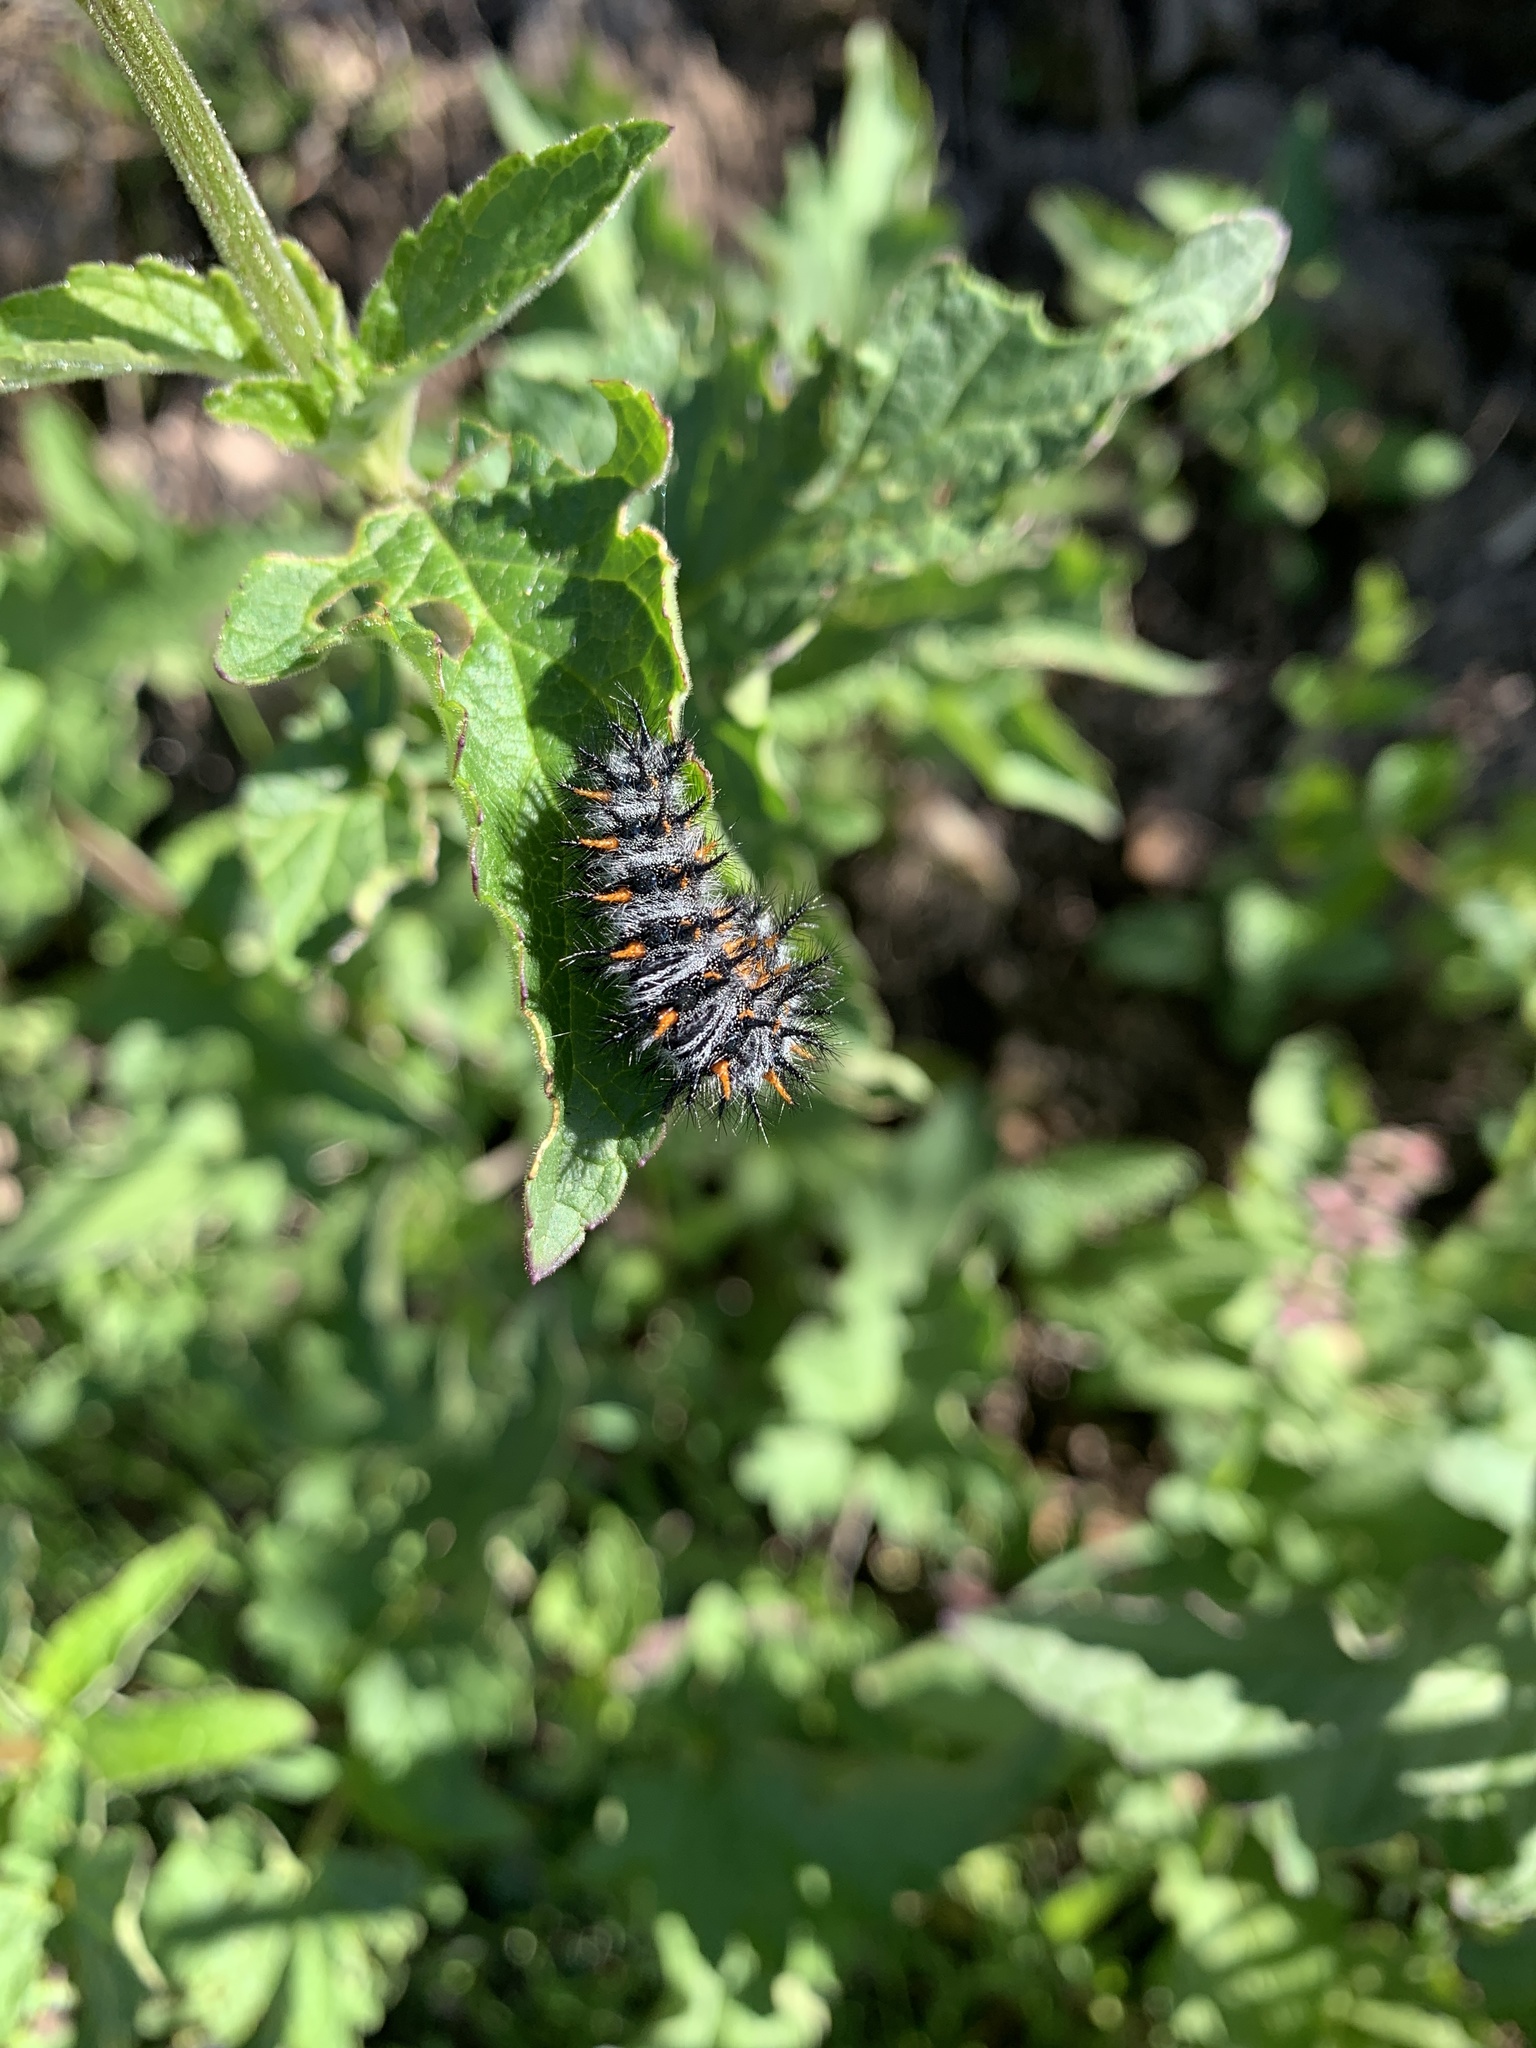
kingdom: Animalia
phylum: Arthropoda
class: Insecta
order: Lepidoptera
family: Nymphalidae
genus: Occidryas
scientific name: Occidryas chalcedona
